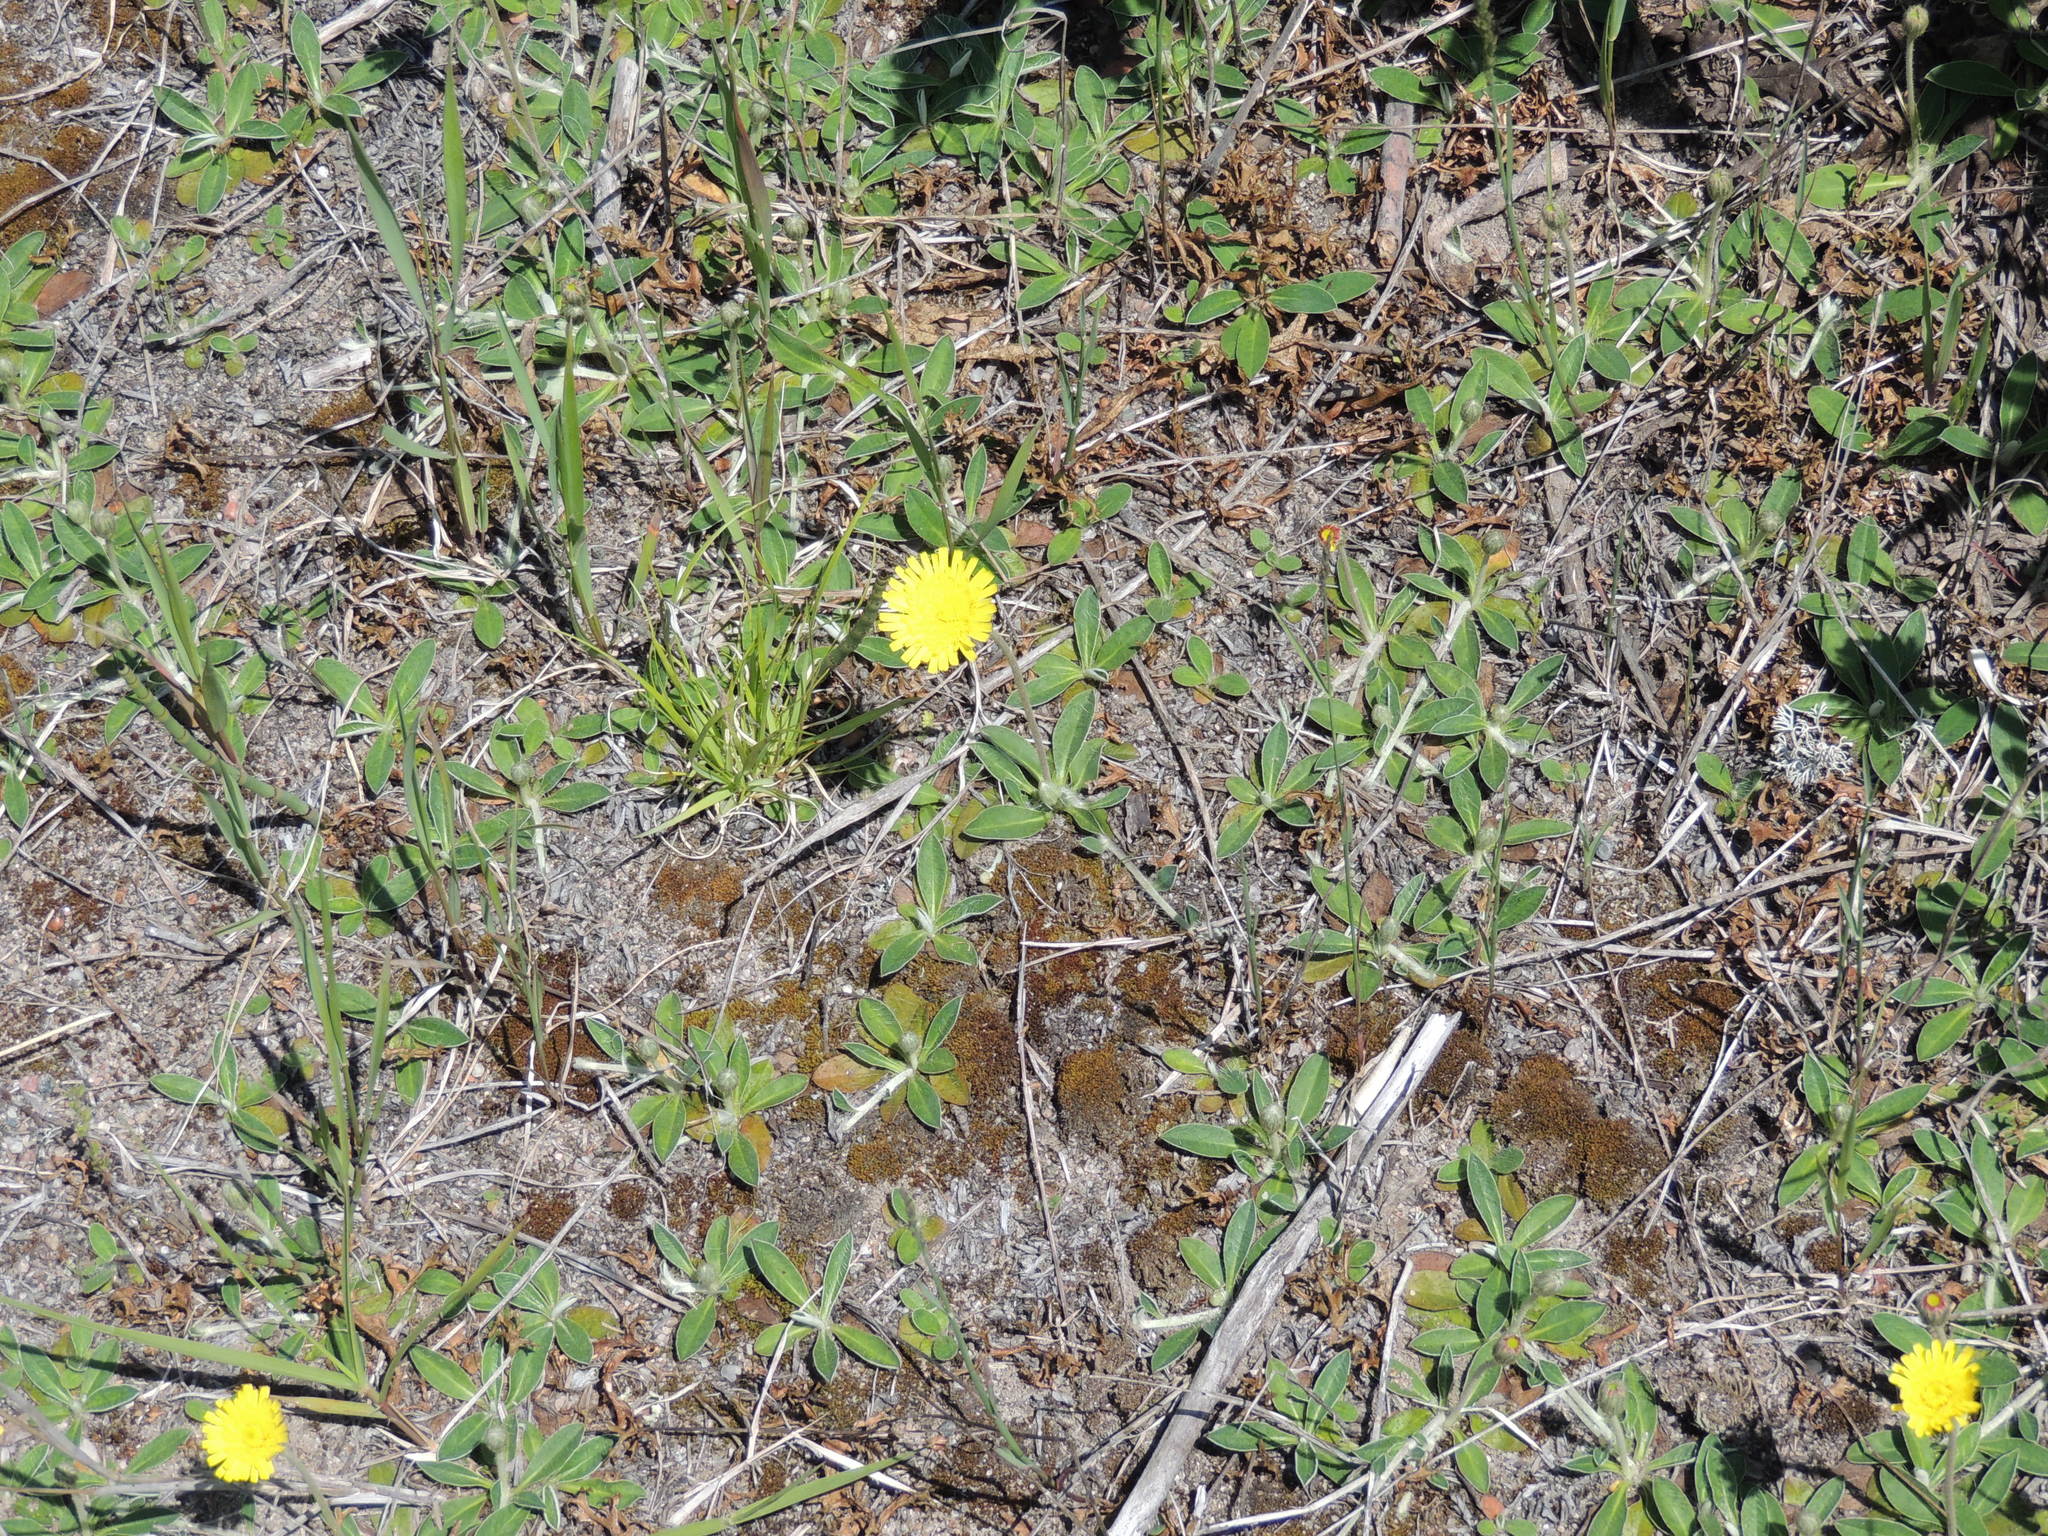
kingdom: Plantae
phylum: Tracheophyta
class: Magnoliopsida
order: Asterales
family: Asteraceae
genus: Pilosella
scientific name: Pilosella officinarum
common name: Mouse-ear hawkweed
